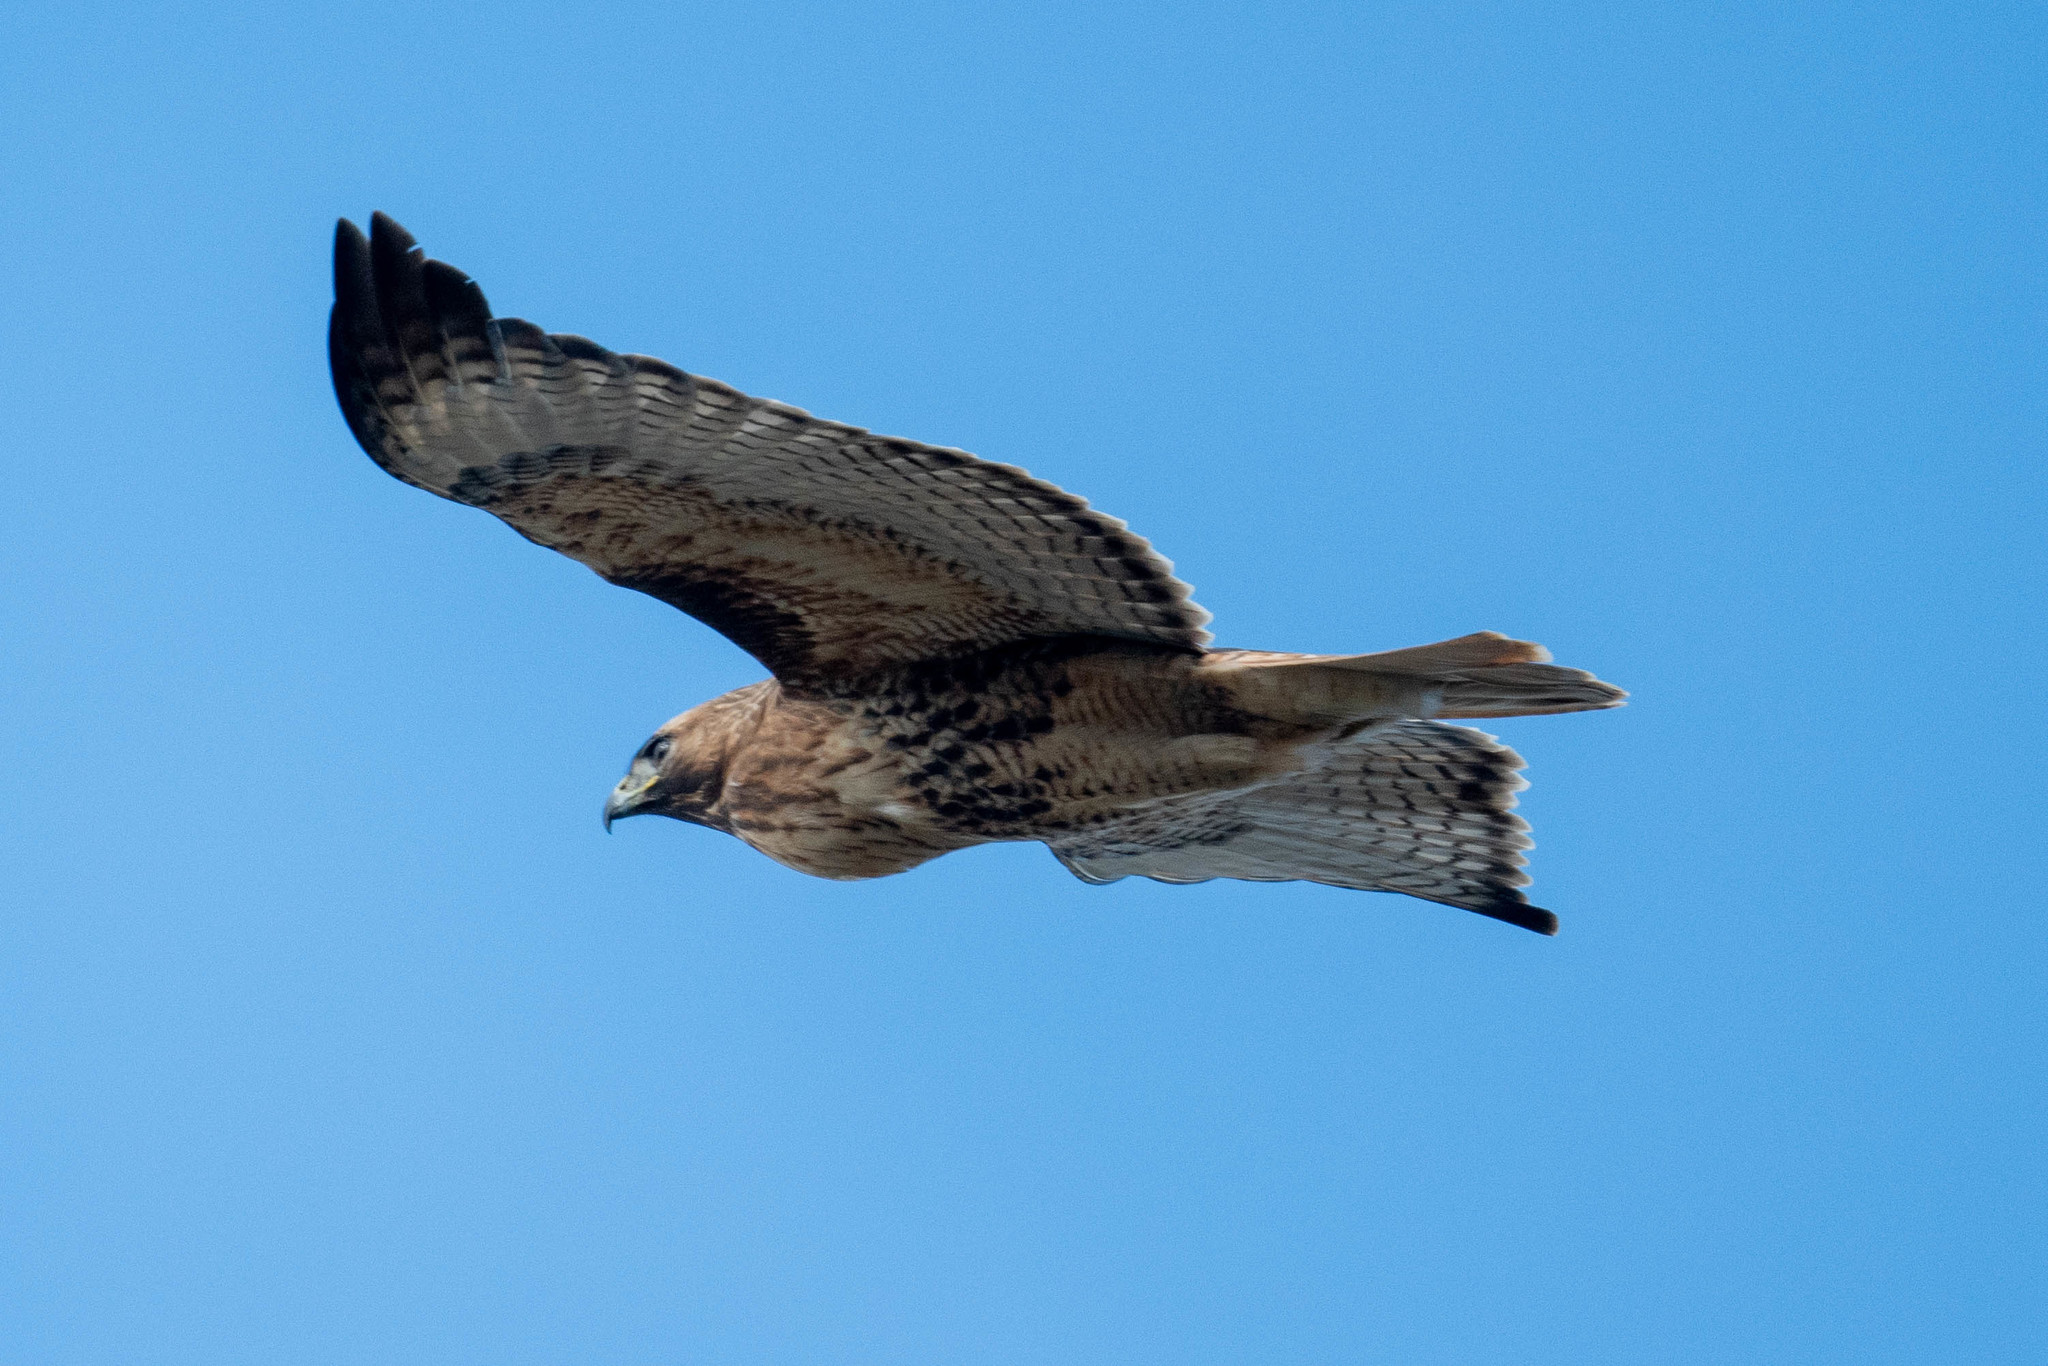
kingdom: Animalia
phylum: Chordata
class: Aves
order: Accipitriformes
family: Accipitridae
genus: Buteo
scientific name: Buteo jamaicensis
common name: Red-tailed hawk
